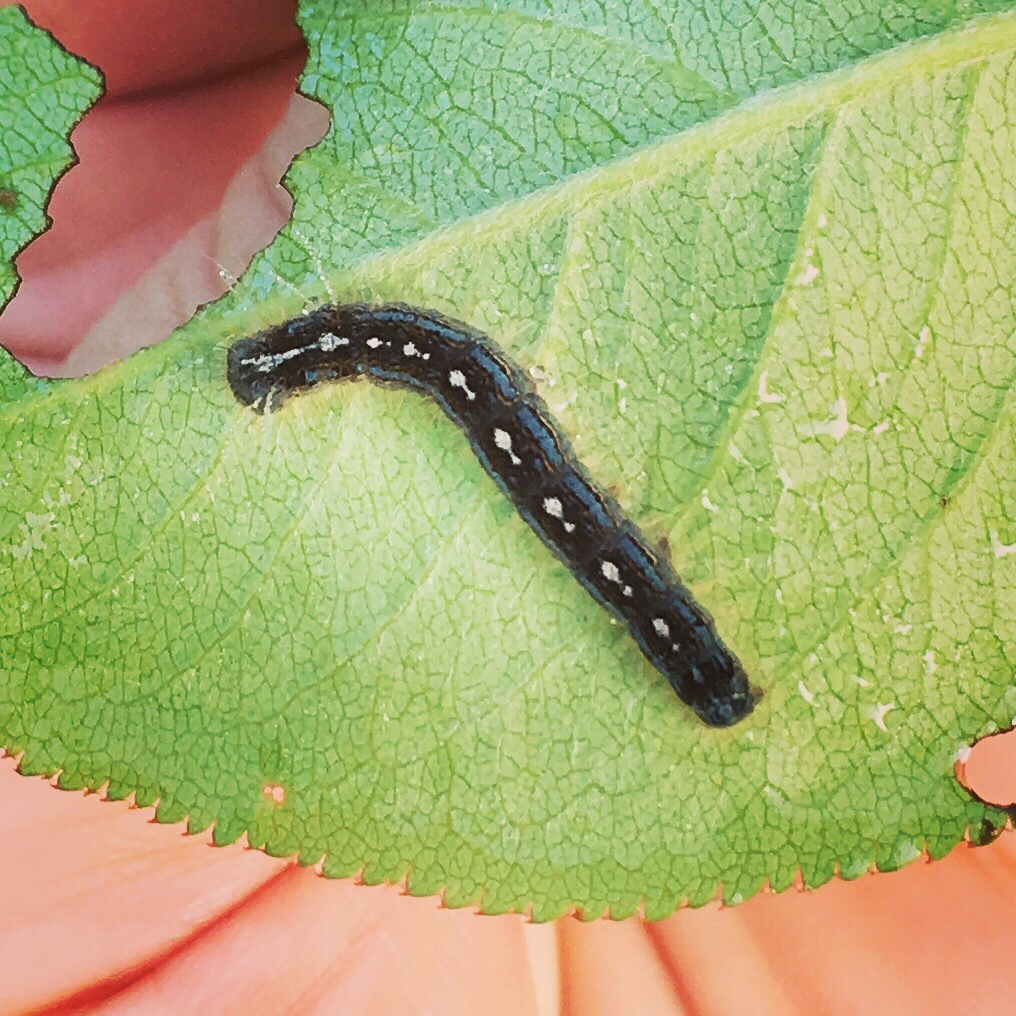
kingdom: Animalia
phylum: Arthropoda
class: Insecta
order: Lepidoptera
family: Lasiocampidae
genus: Malacosoma
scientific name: Malacosoma disstria
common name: Forest tent caterpillar
